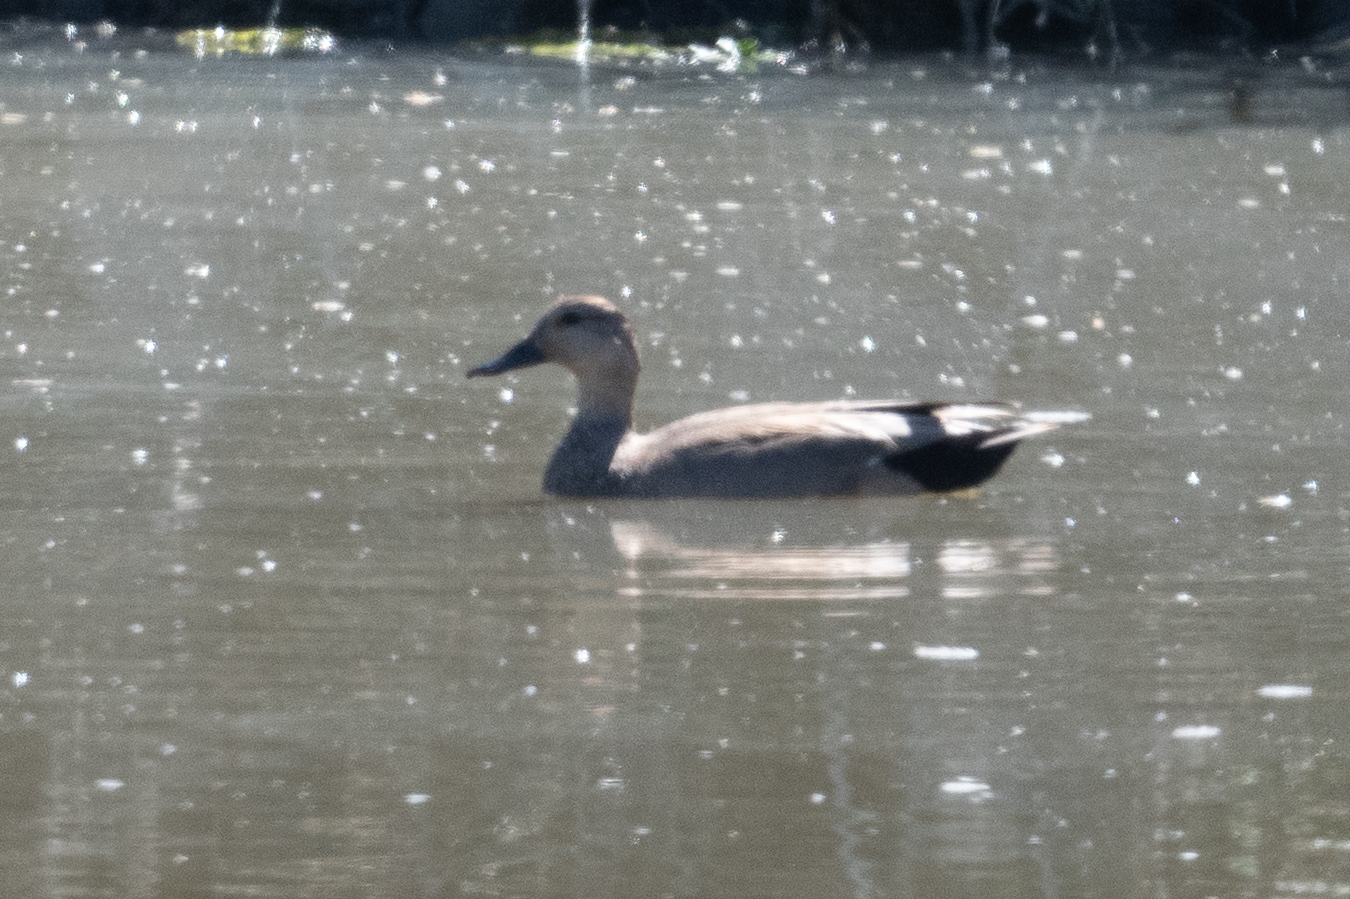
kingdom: Animalia
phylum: Chordata
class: Aves
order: Anseriformes
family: Anatidae
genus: Mareca
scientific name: Mareca strepera
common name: Gadwall
